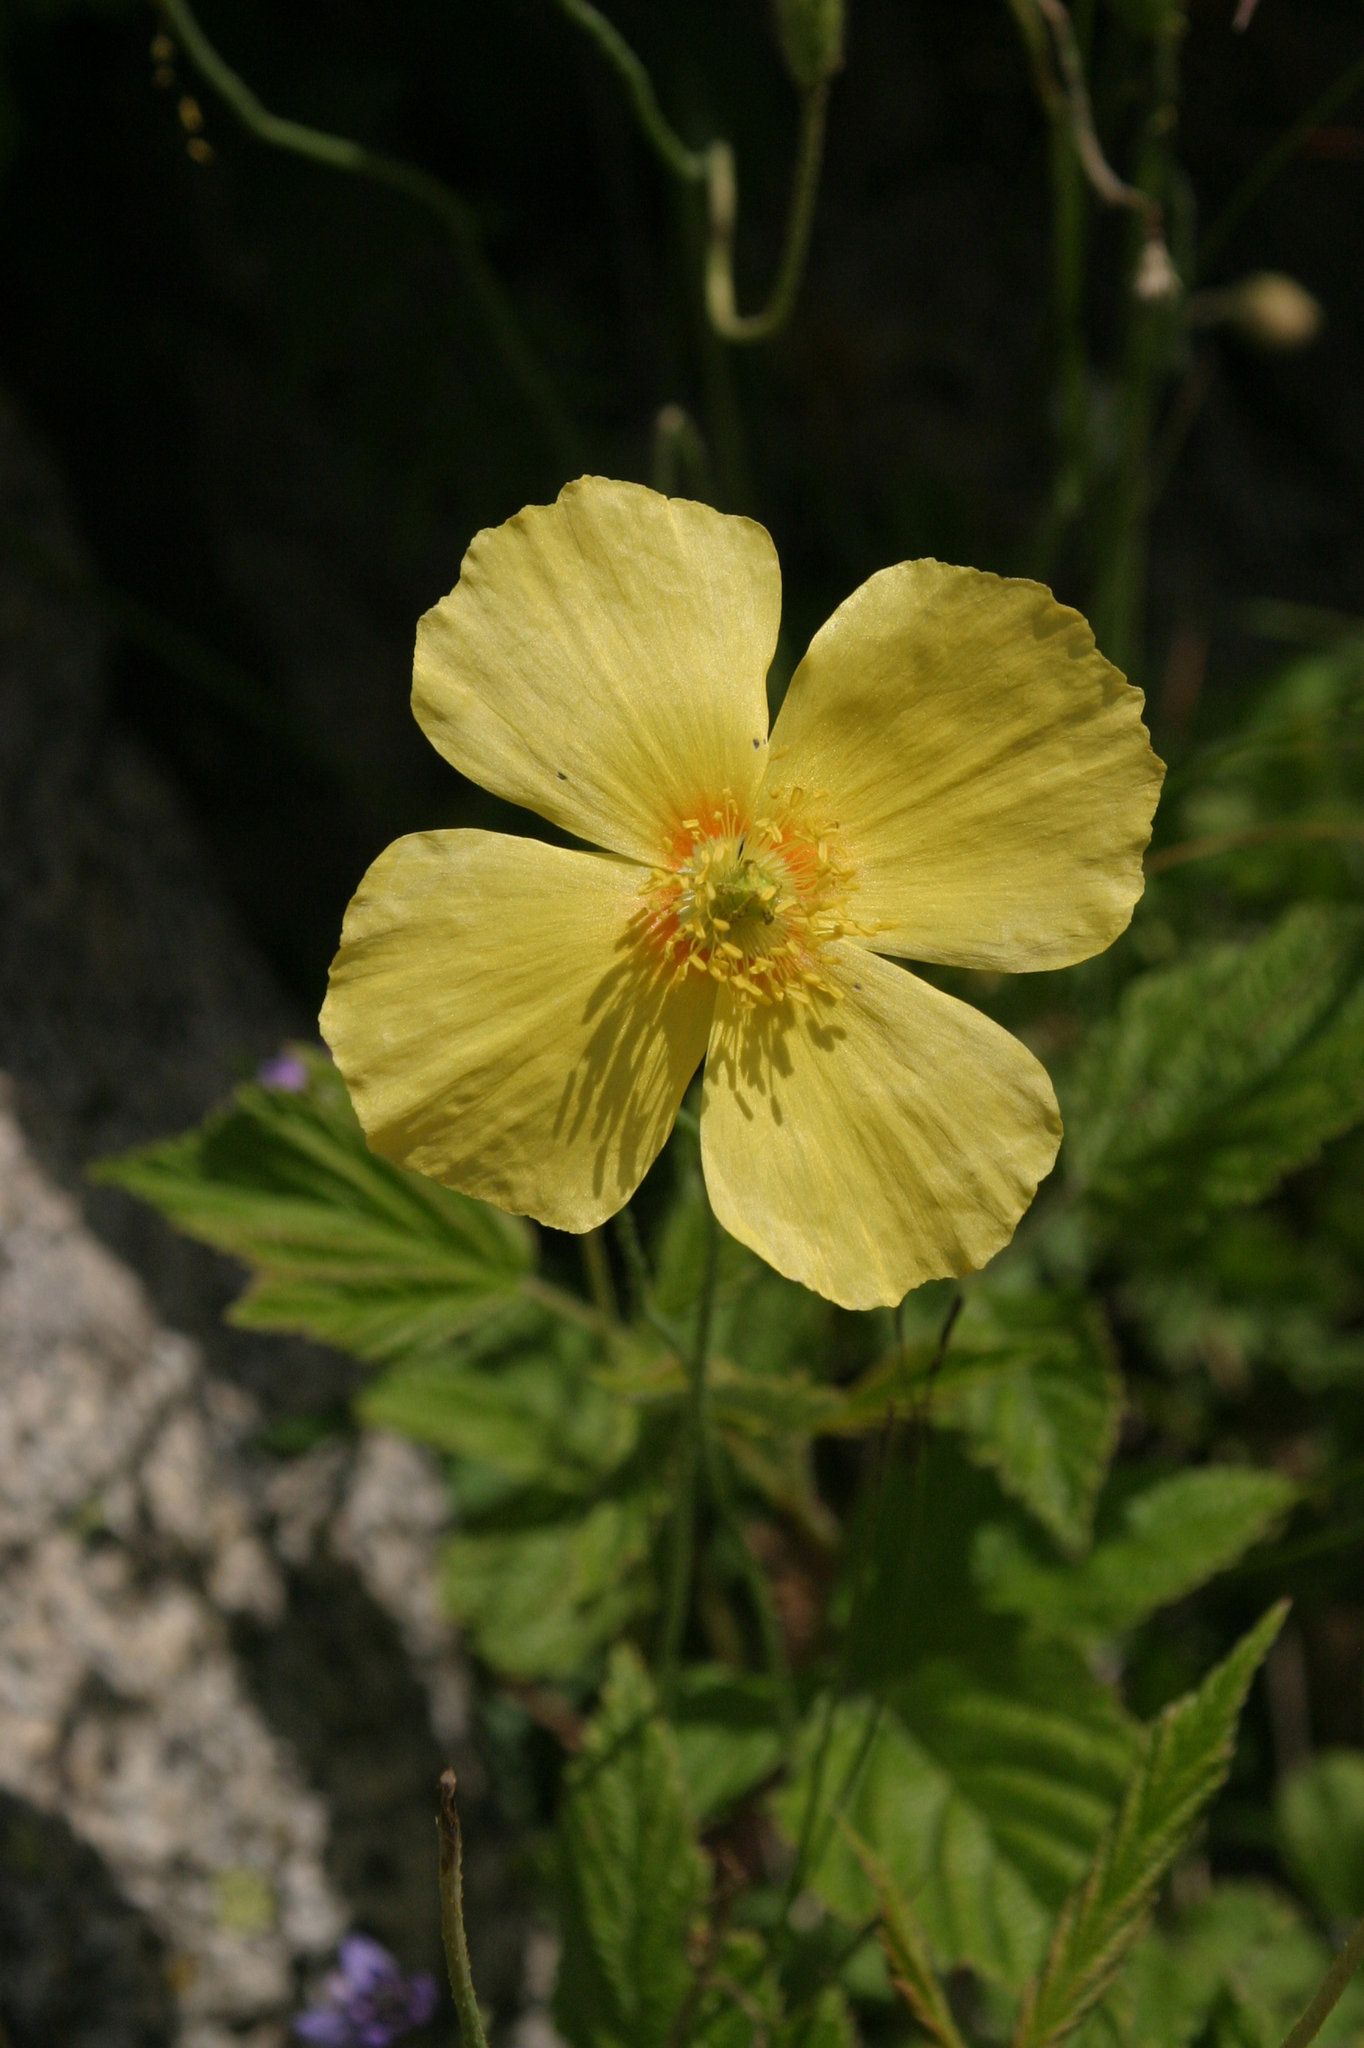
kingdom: Plantae
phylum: Tracheophyta
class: Magnoliopsida
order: Ranunculales
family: Papaveraceae
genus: Oreomecon
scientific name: Oreomecon
